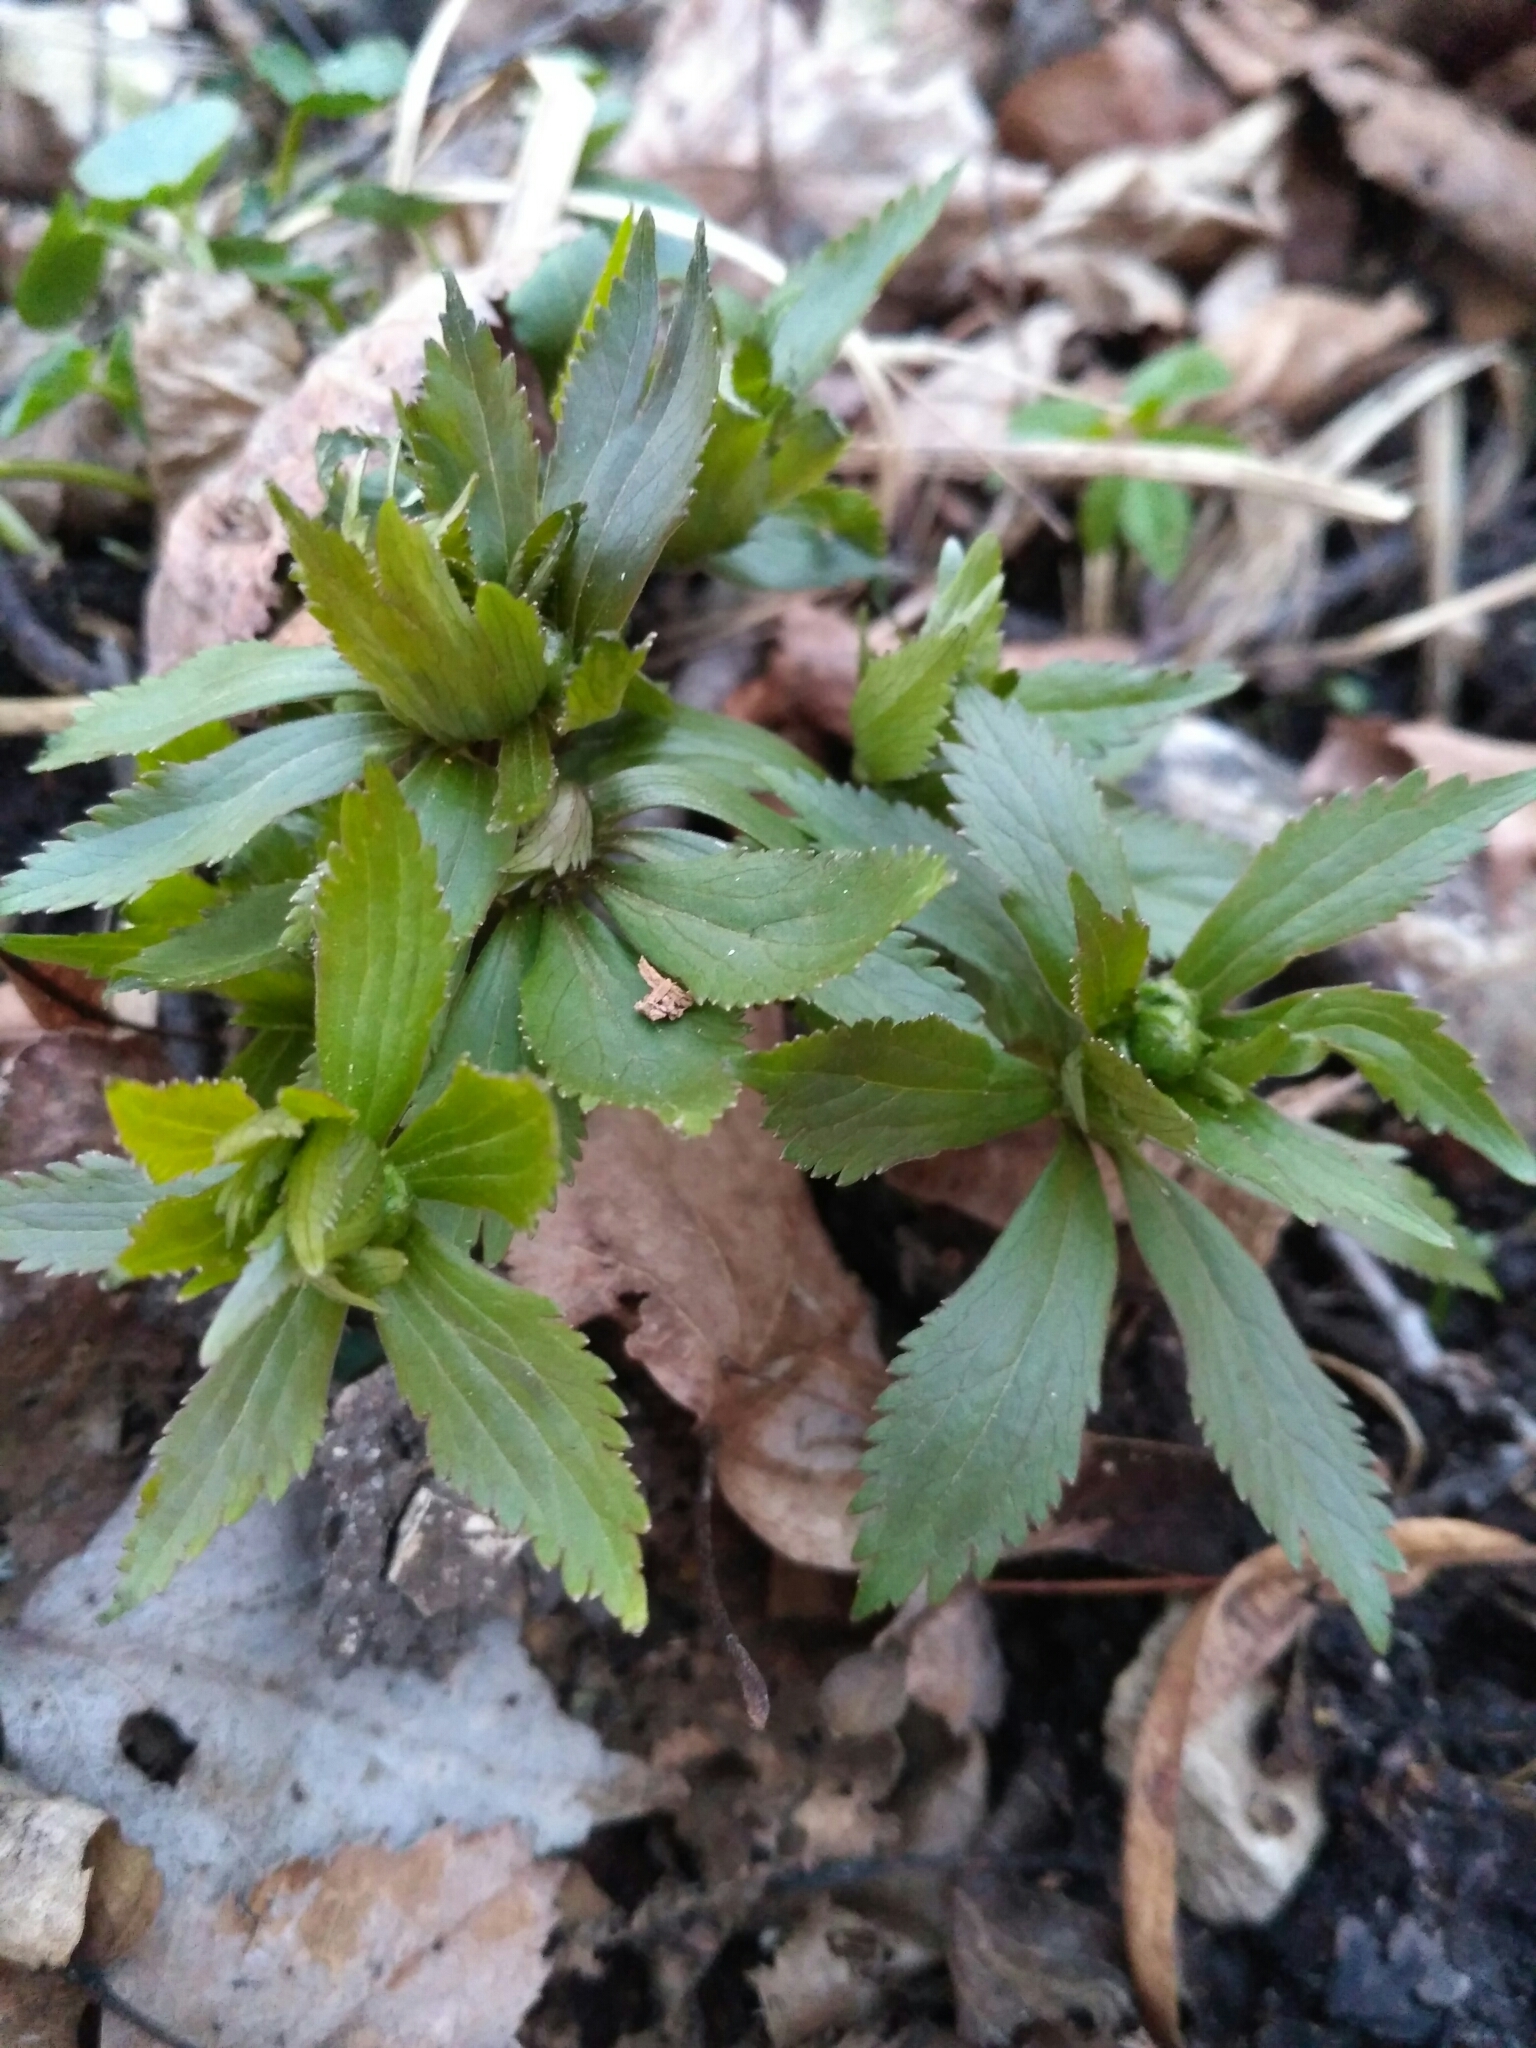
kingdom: Plantae
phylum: Tracheophyta
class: Magnoliopsida
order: Ranunculales
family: Ranunculaceae
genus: Ranunculus
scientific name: Ranunculus cassubicus
